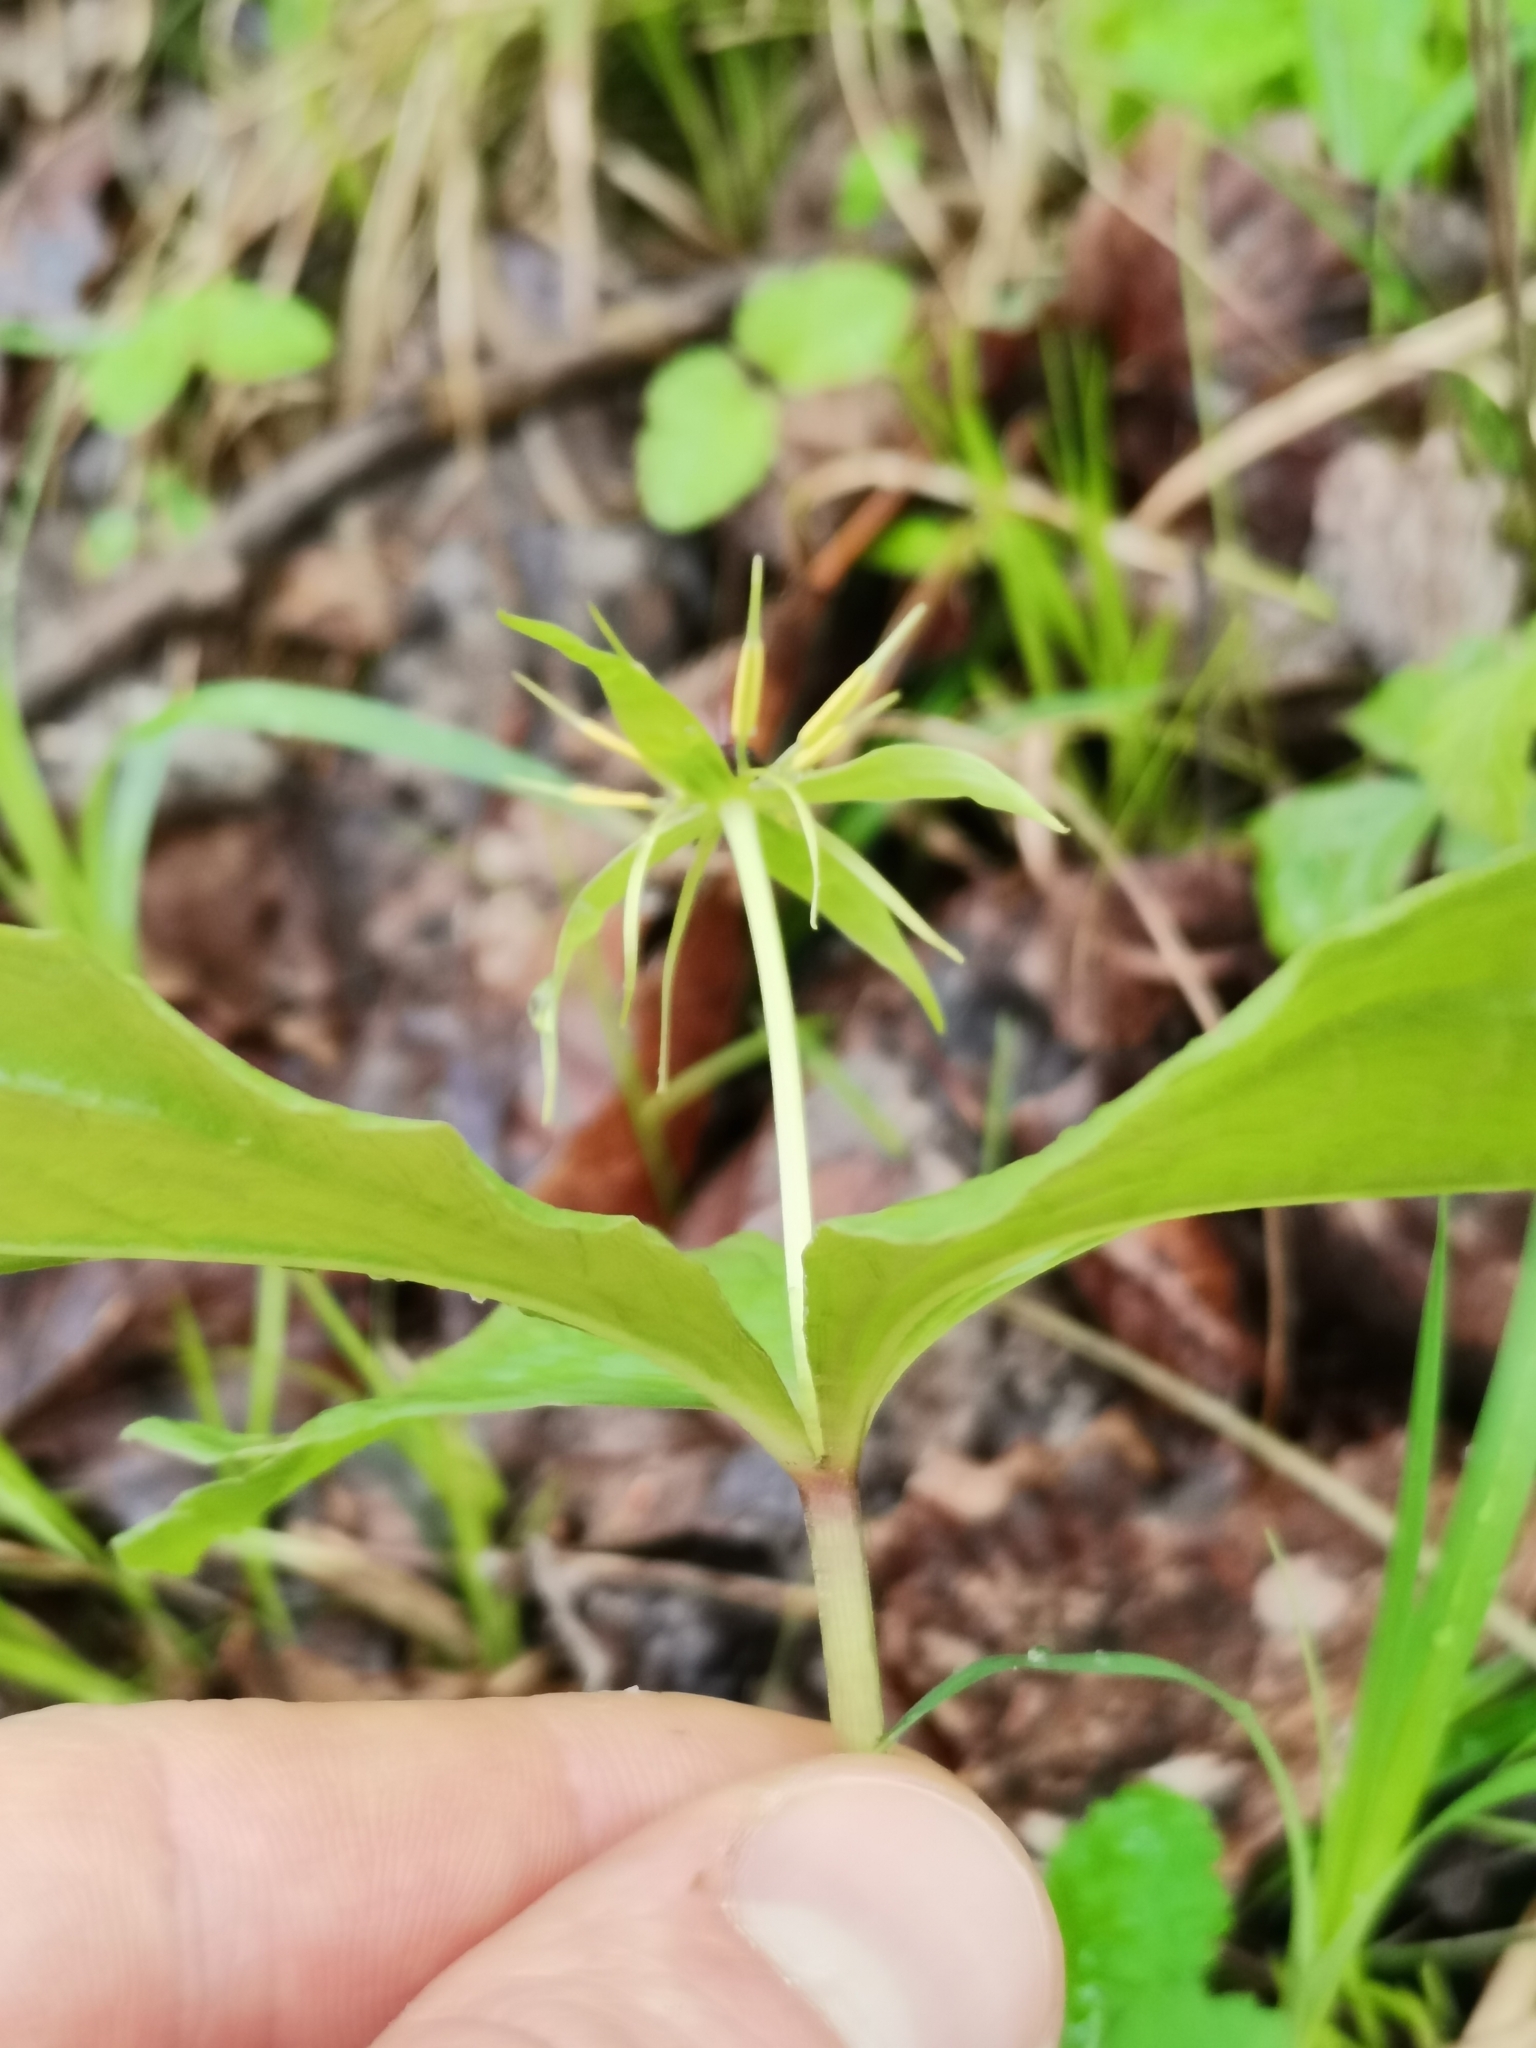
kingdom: Plantae
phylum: Tracheophyta
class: Liliopsida
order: Liliales
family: Melanthiaceae
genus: Paris
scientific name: Paris quadrifolia
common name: Herb-paris
